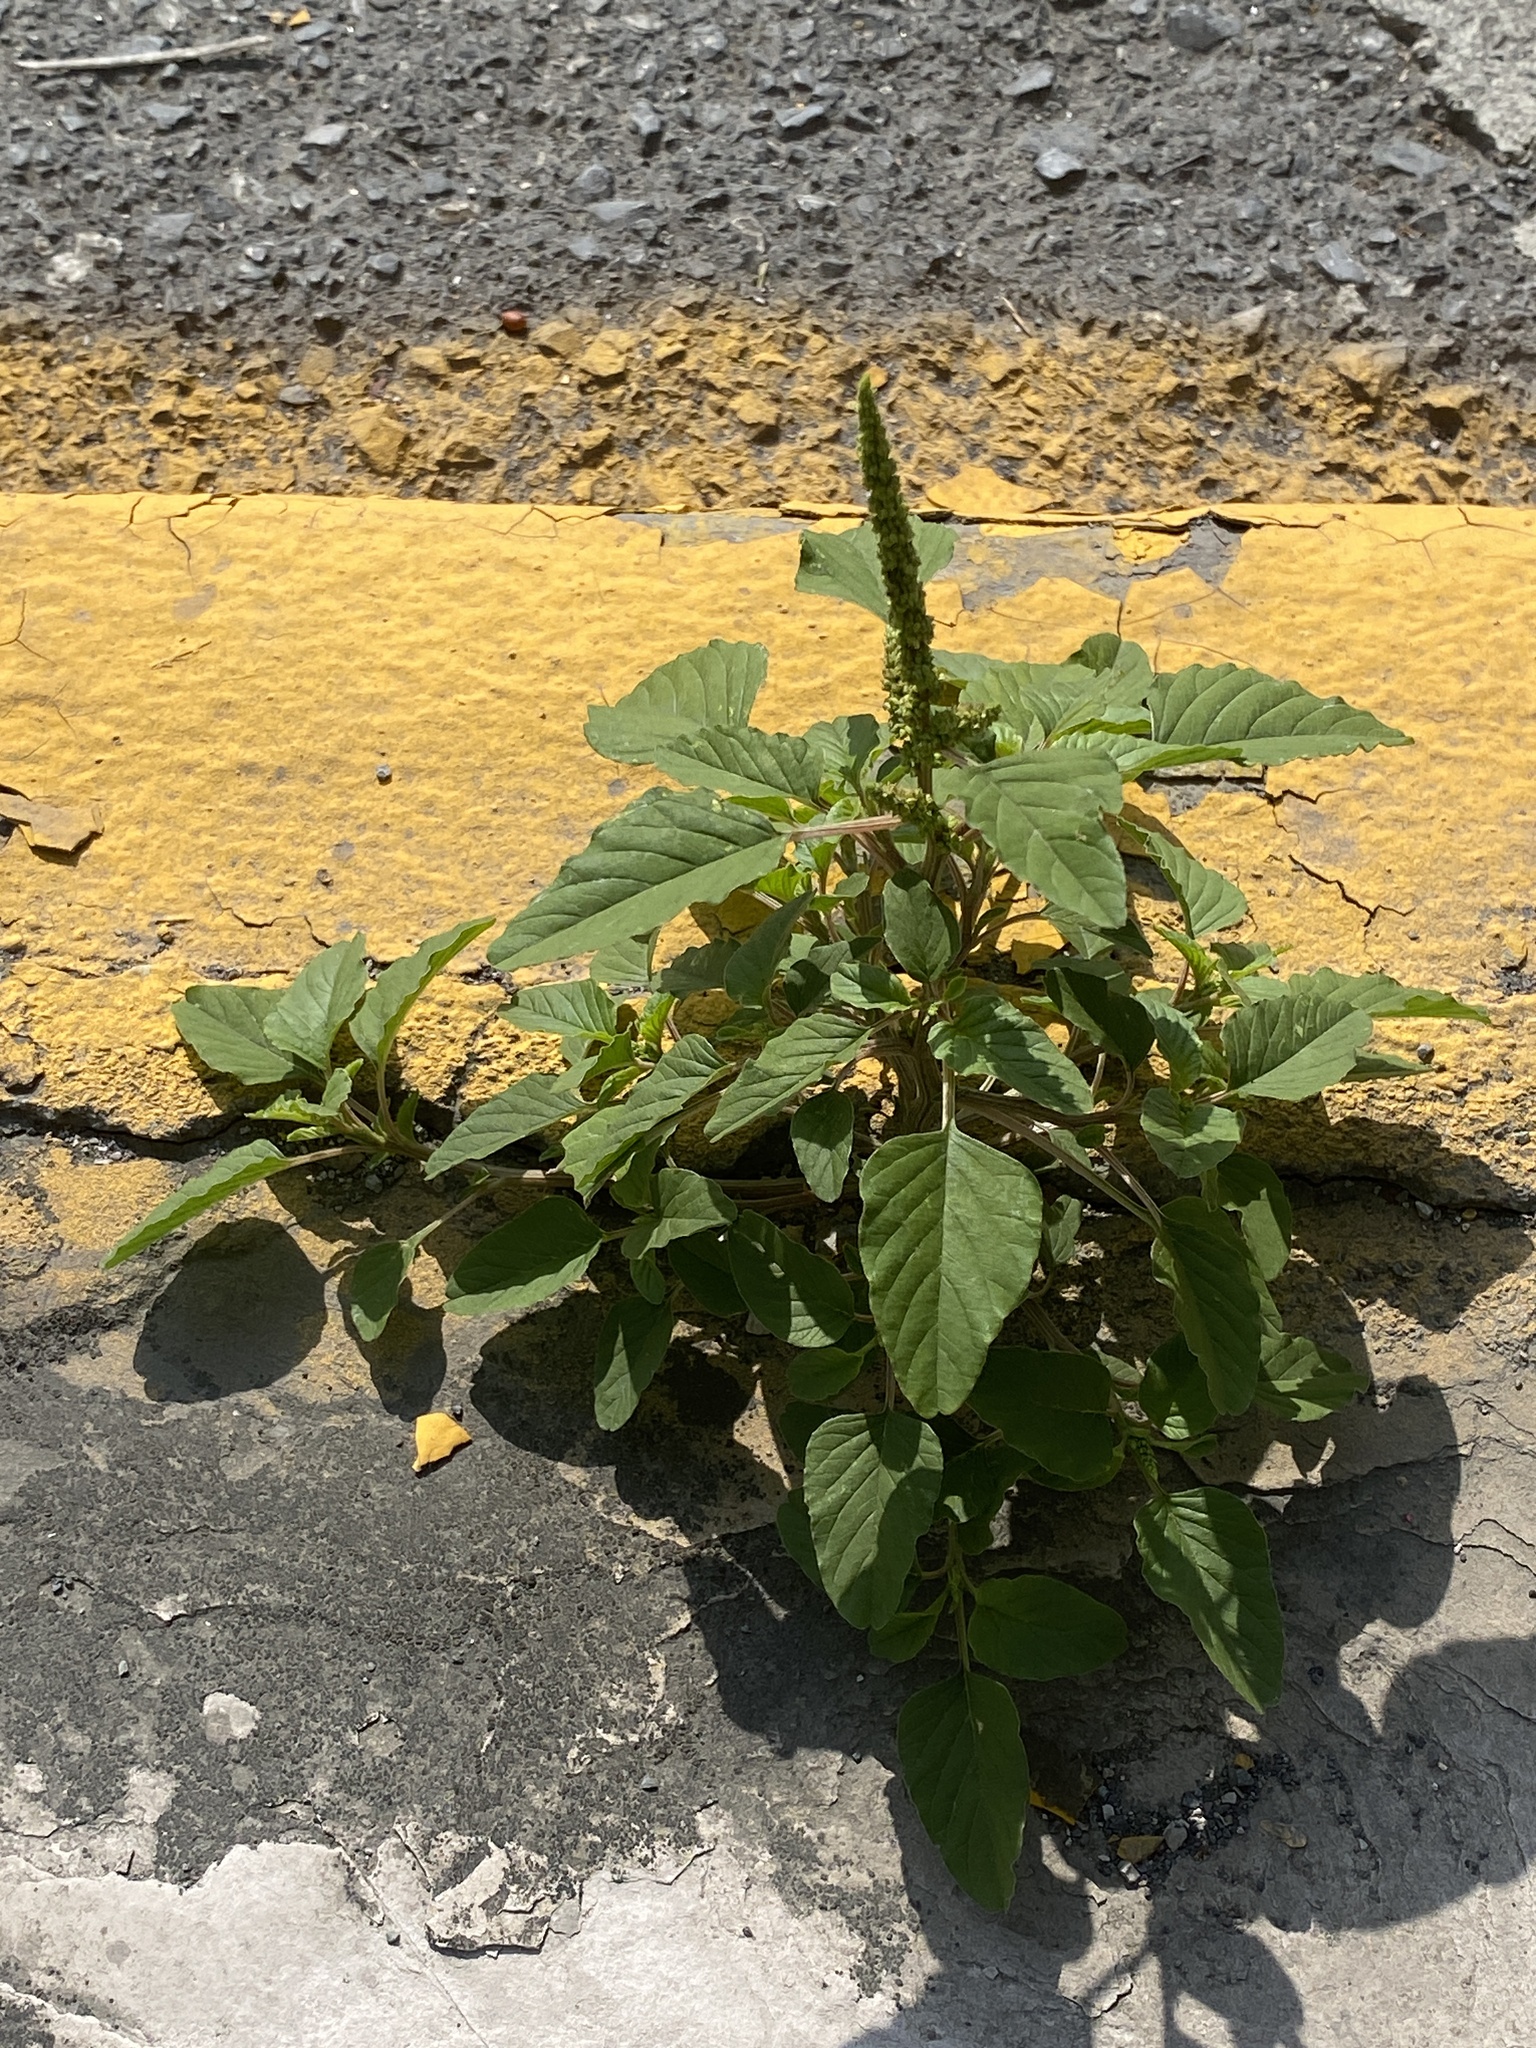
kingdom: Plantae
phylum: Tracheophyta
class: Magnoliopsida
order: Caryophyllales
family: Amaranthaceae
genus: Amaranthus
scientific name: Amaranthus palmeri
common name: Dioecious amaranth
